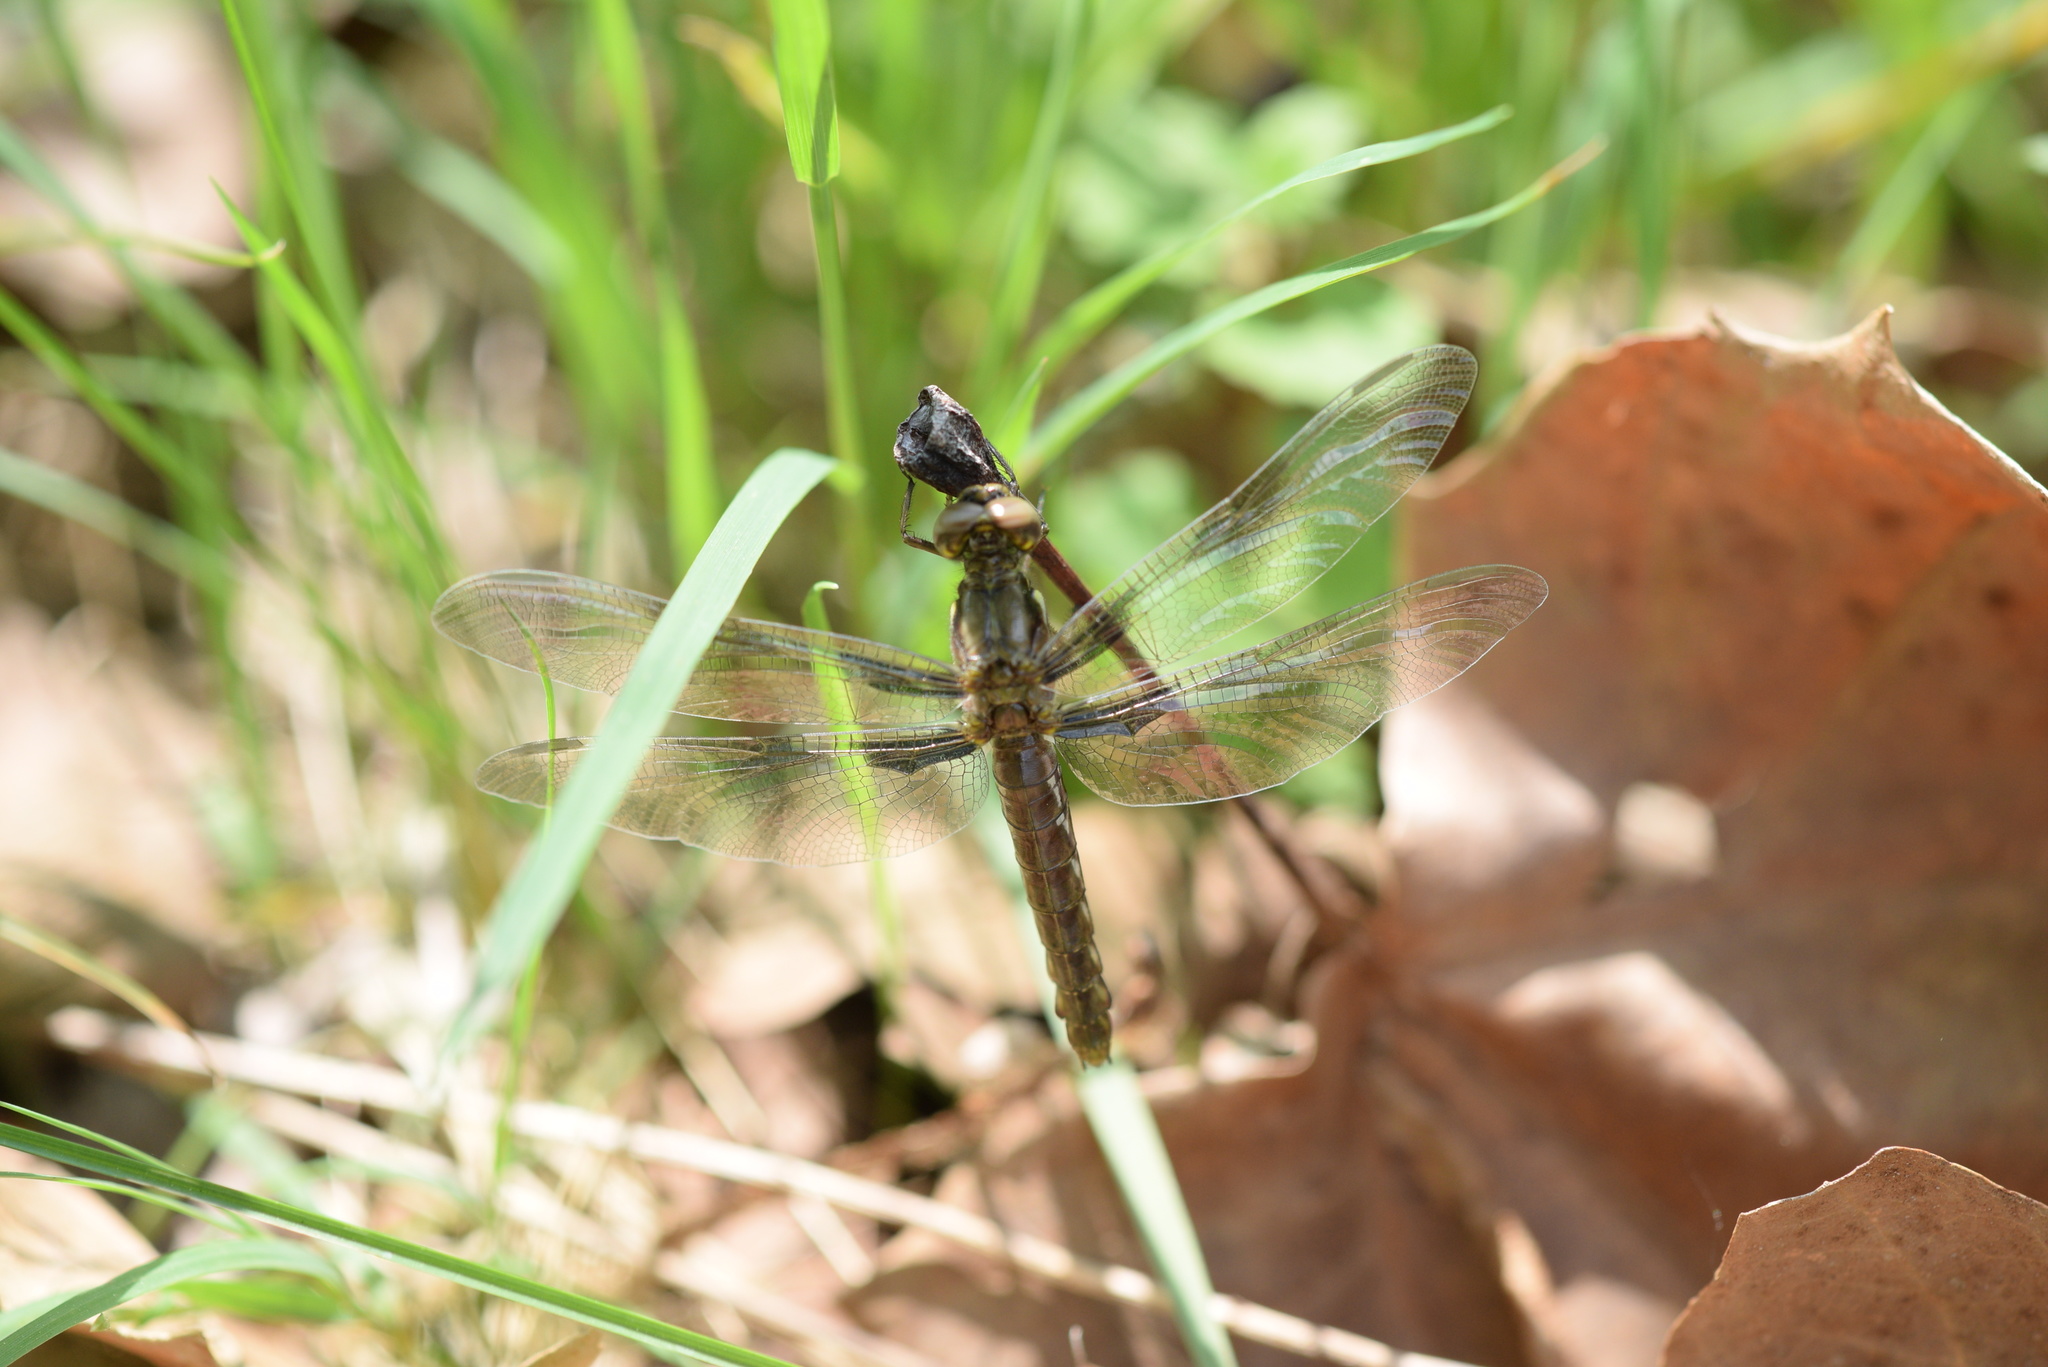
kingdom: Animalia
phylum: Arthropoda
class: Insecta
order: Odonata
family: Libellulidae
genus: Plathemis
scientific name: Plathemis lydia
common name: Common whitetail
